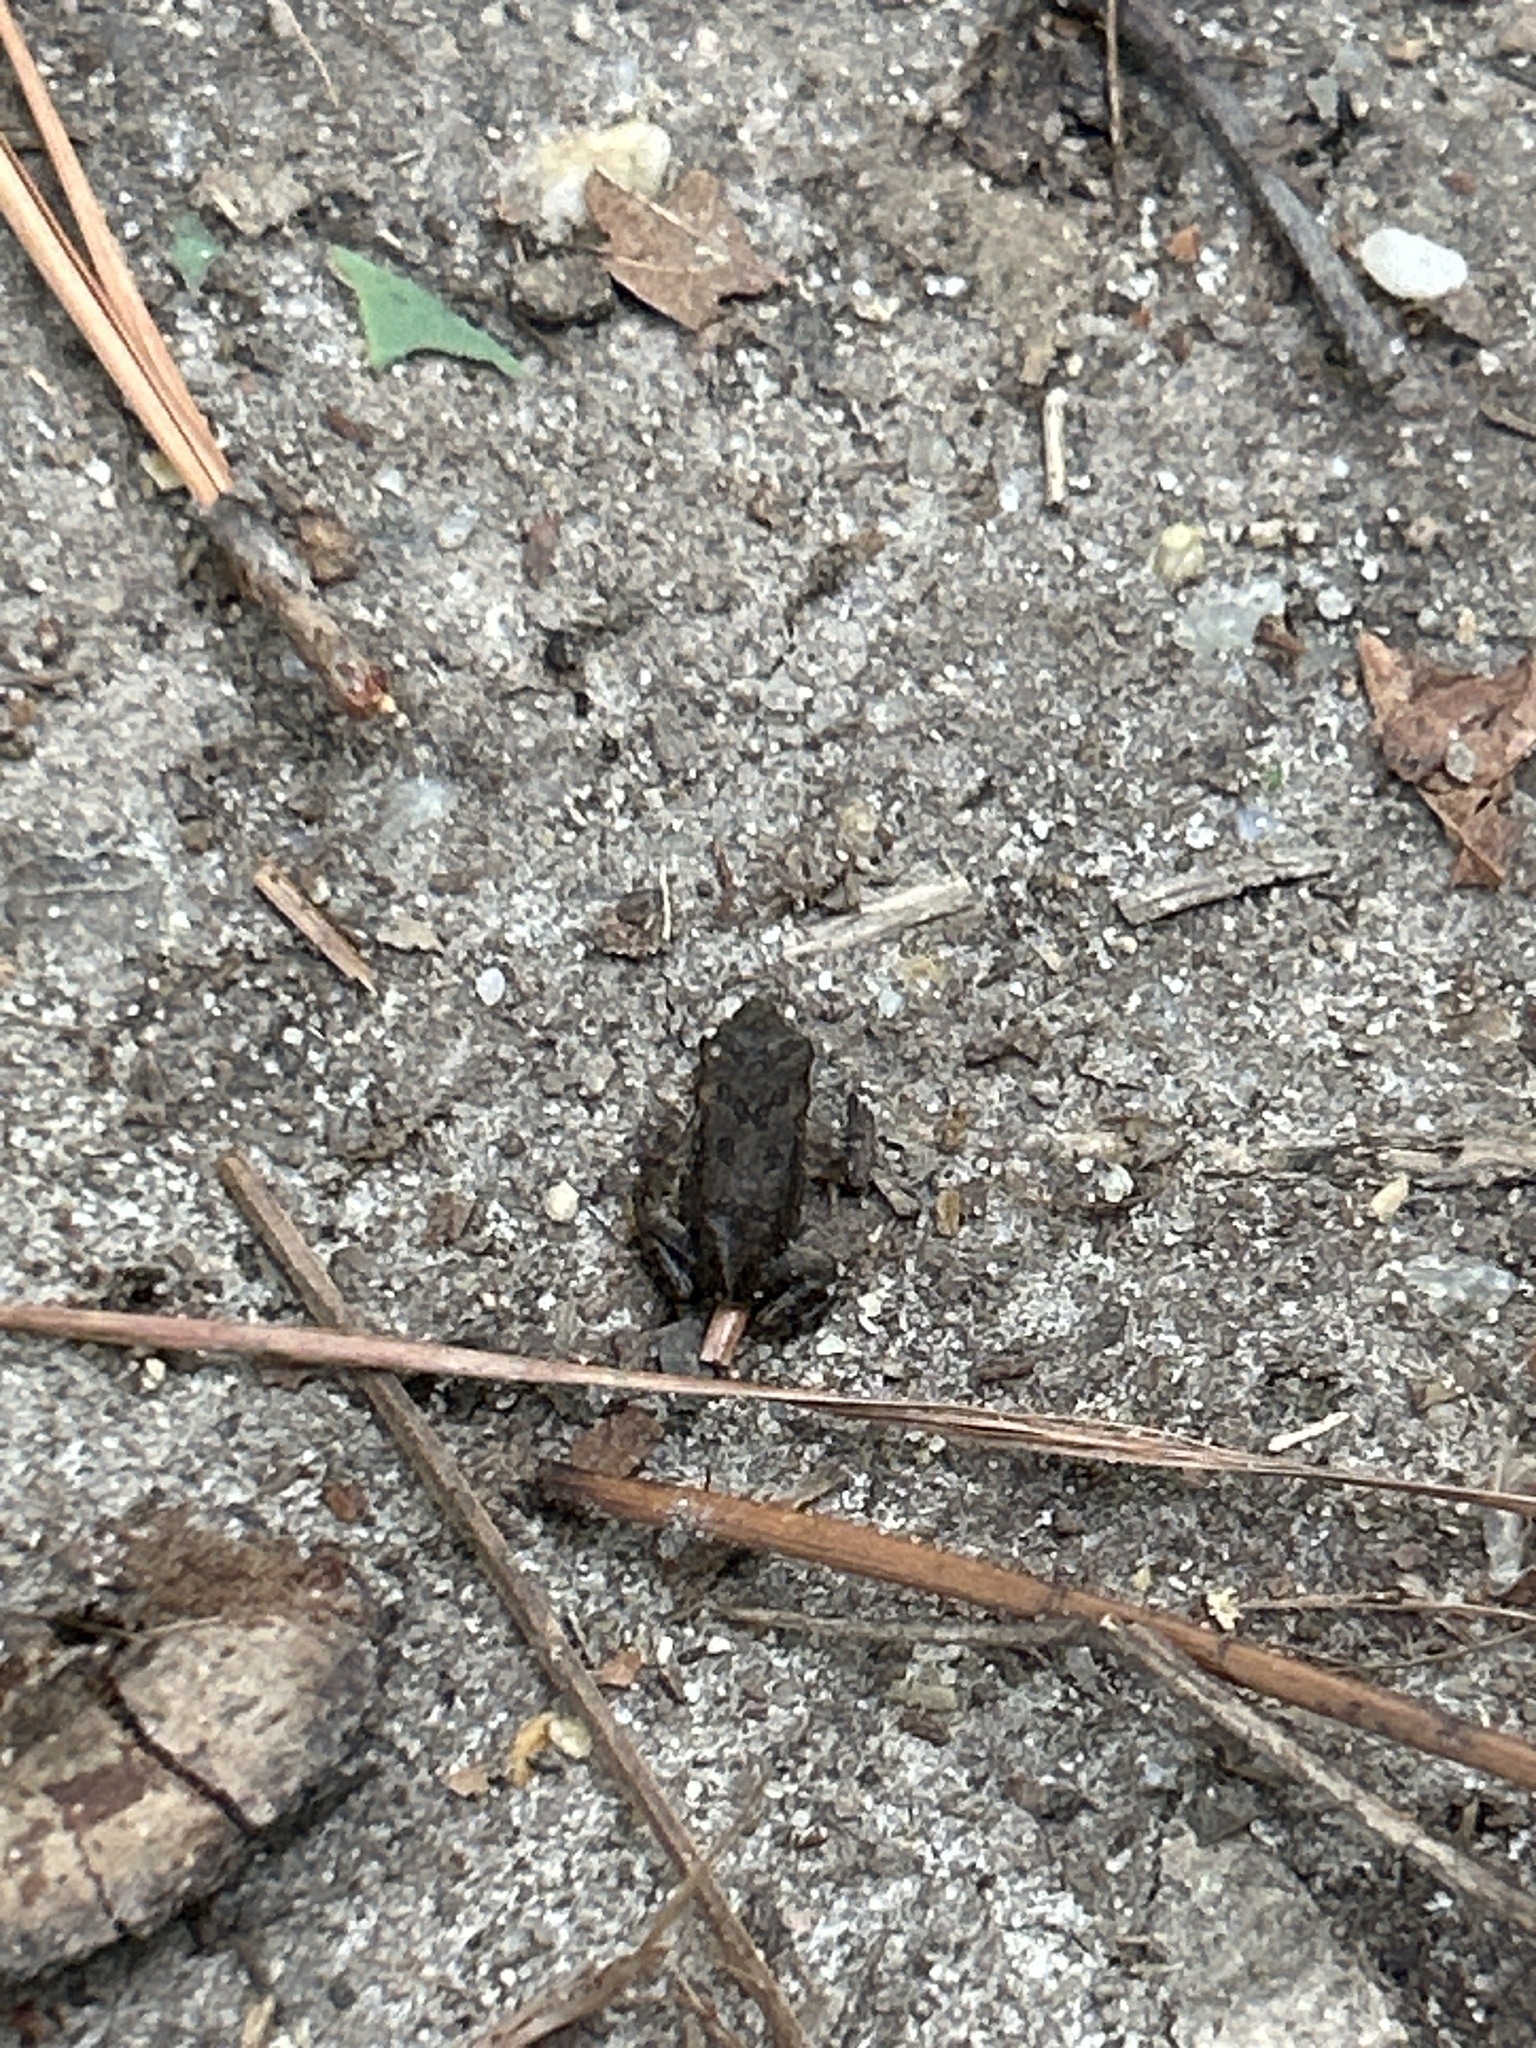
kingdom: Animalia
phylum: Chordata
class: Amphibia
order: Anura
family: Bufonidae
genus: Anaxyrus
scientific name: Anaxyrus fowleri
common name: Fowler's toad
